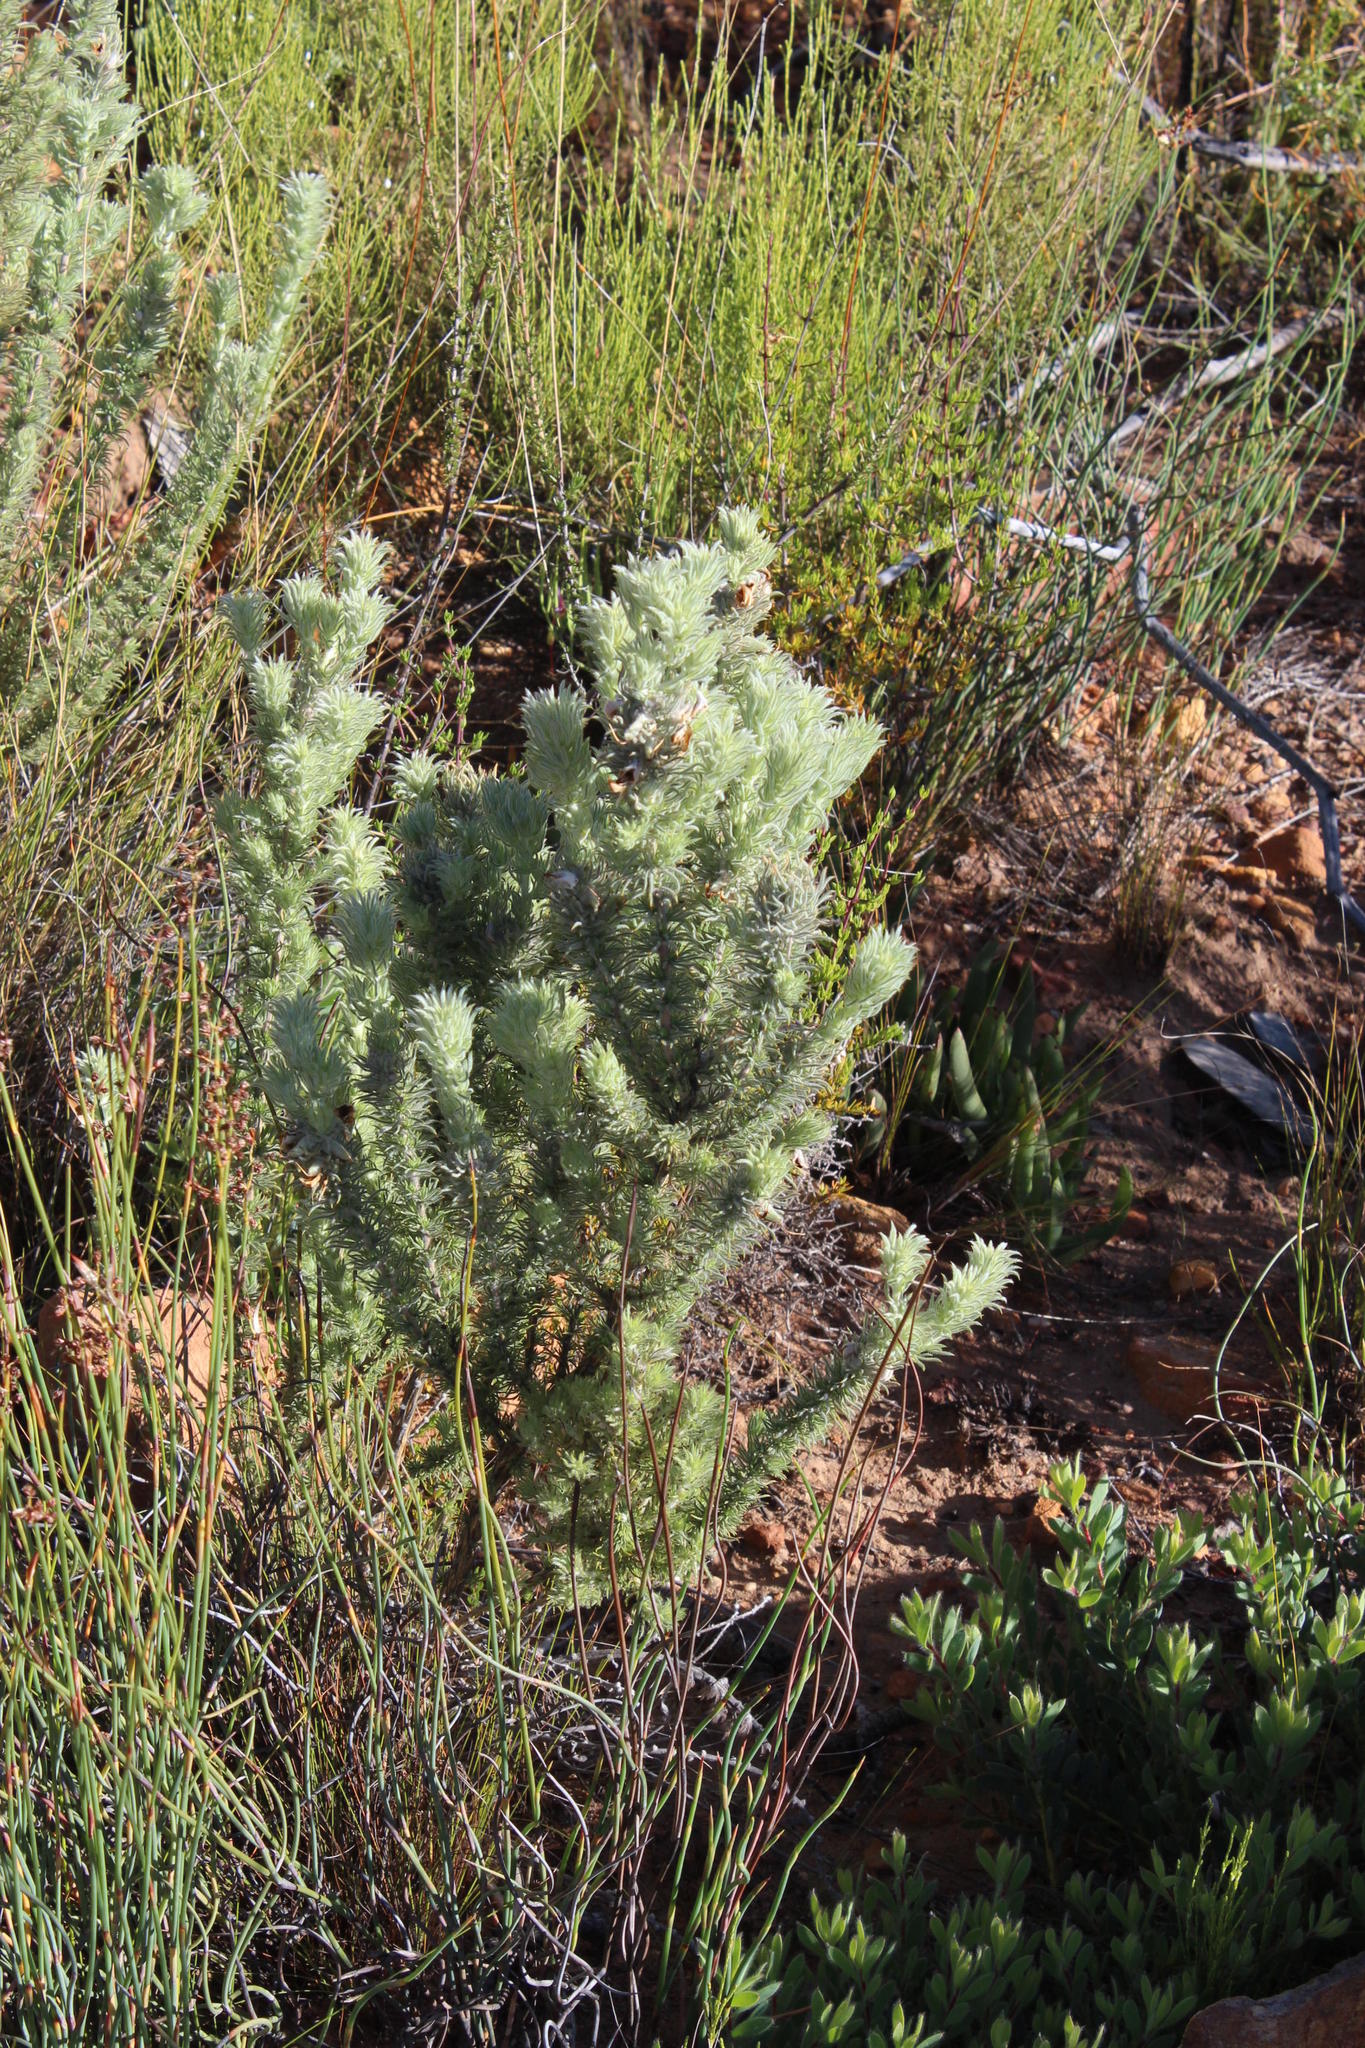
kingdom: Plantae
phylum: Tracheophyta
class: Magnoliopsida
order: Fabales
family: Fabaceae
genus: Aspalathus
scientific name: Aspalathus shawii
